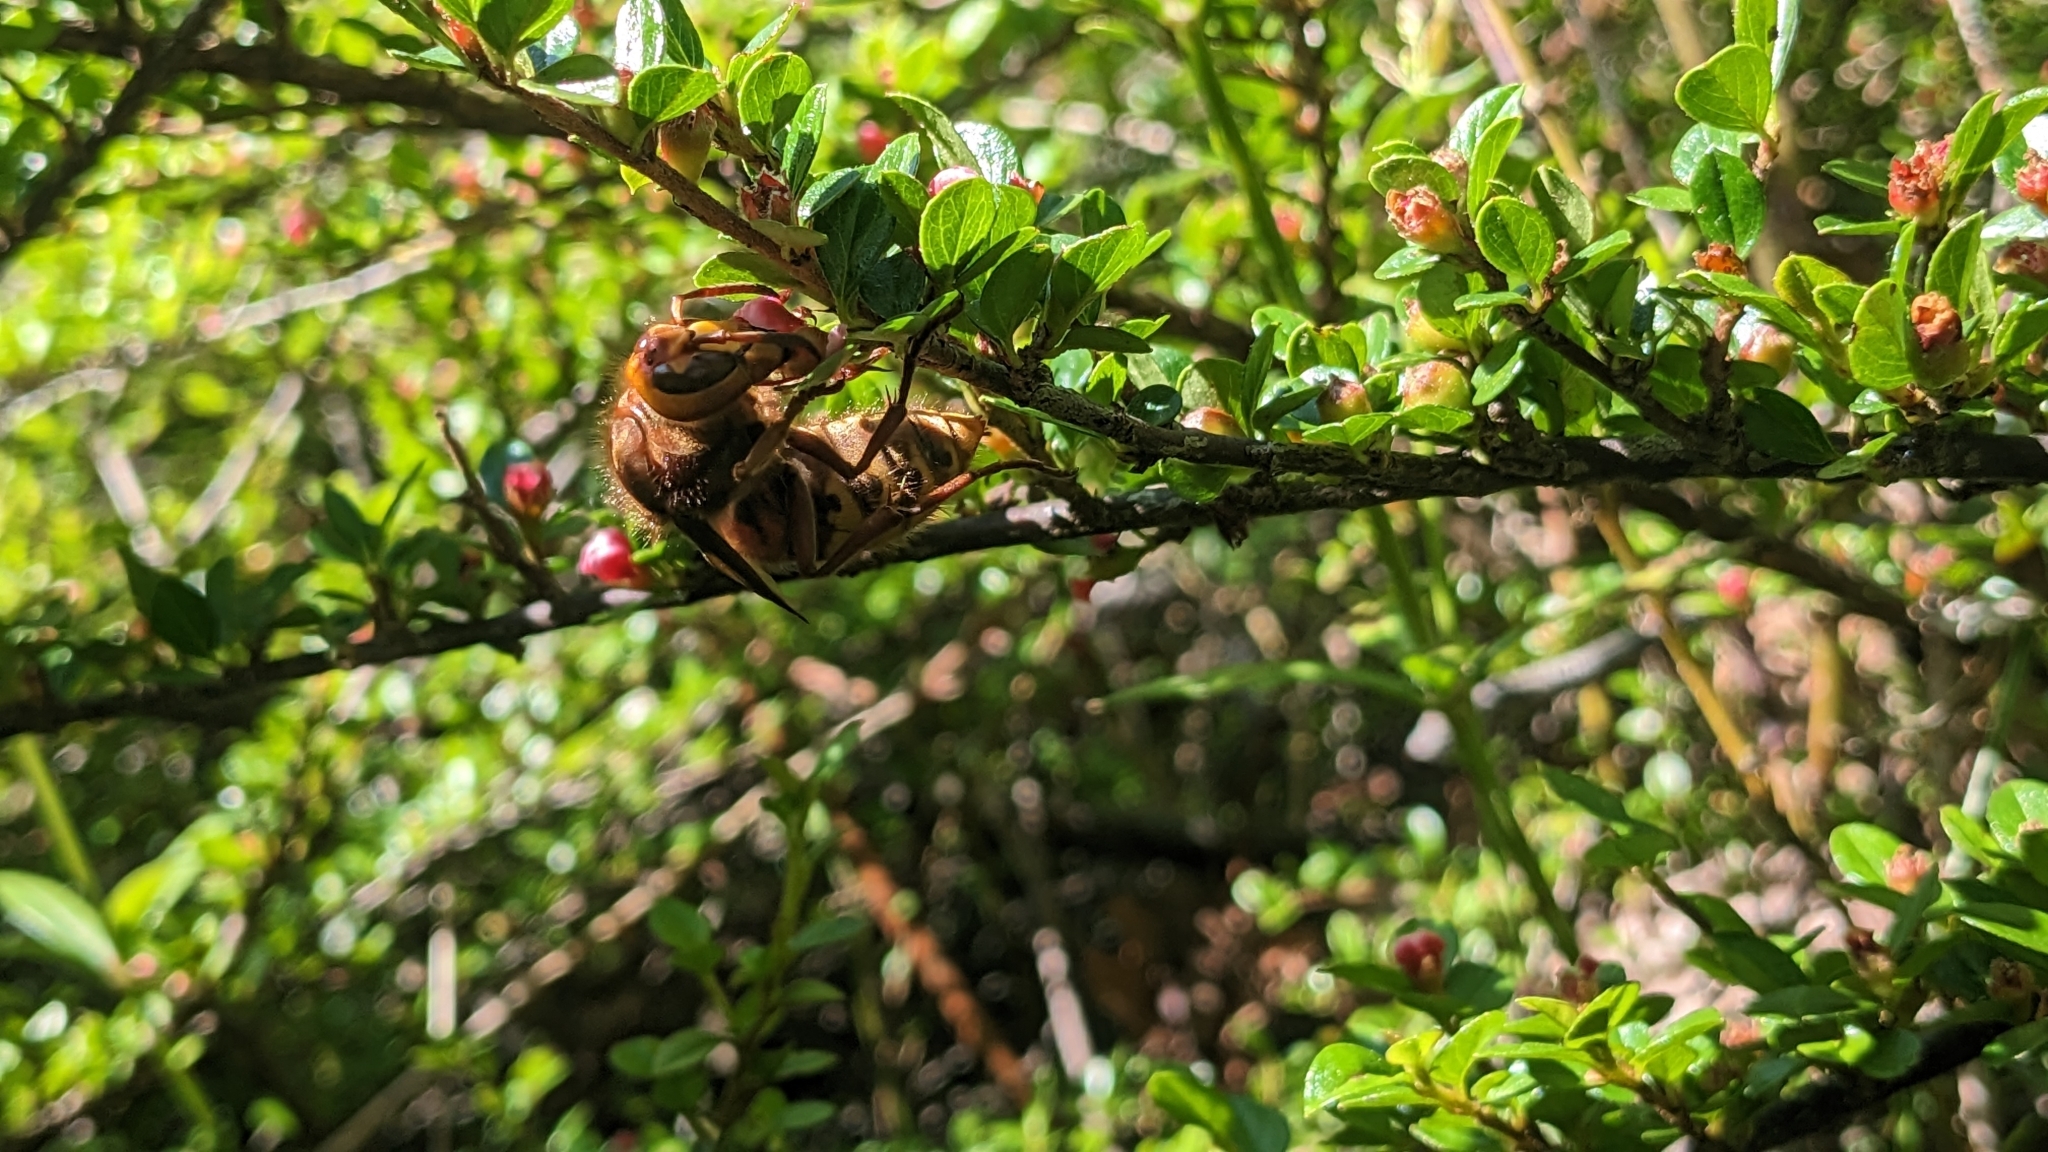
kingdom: Animalia
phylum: Arthropoda
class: Insecta
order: Hymenoptera
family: Vespidae
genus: Vespa
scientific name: Vespa crabro
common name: Hornet
